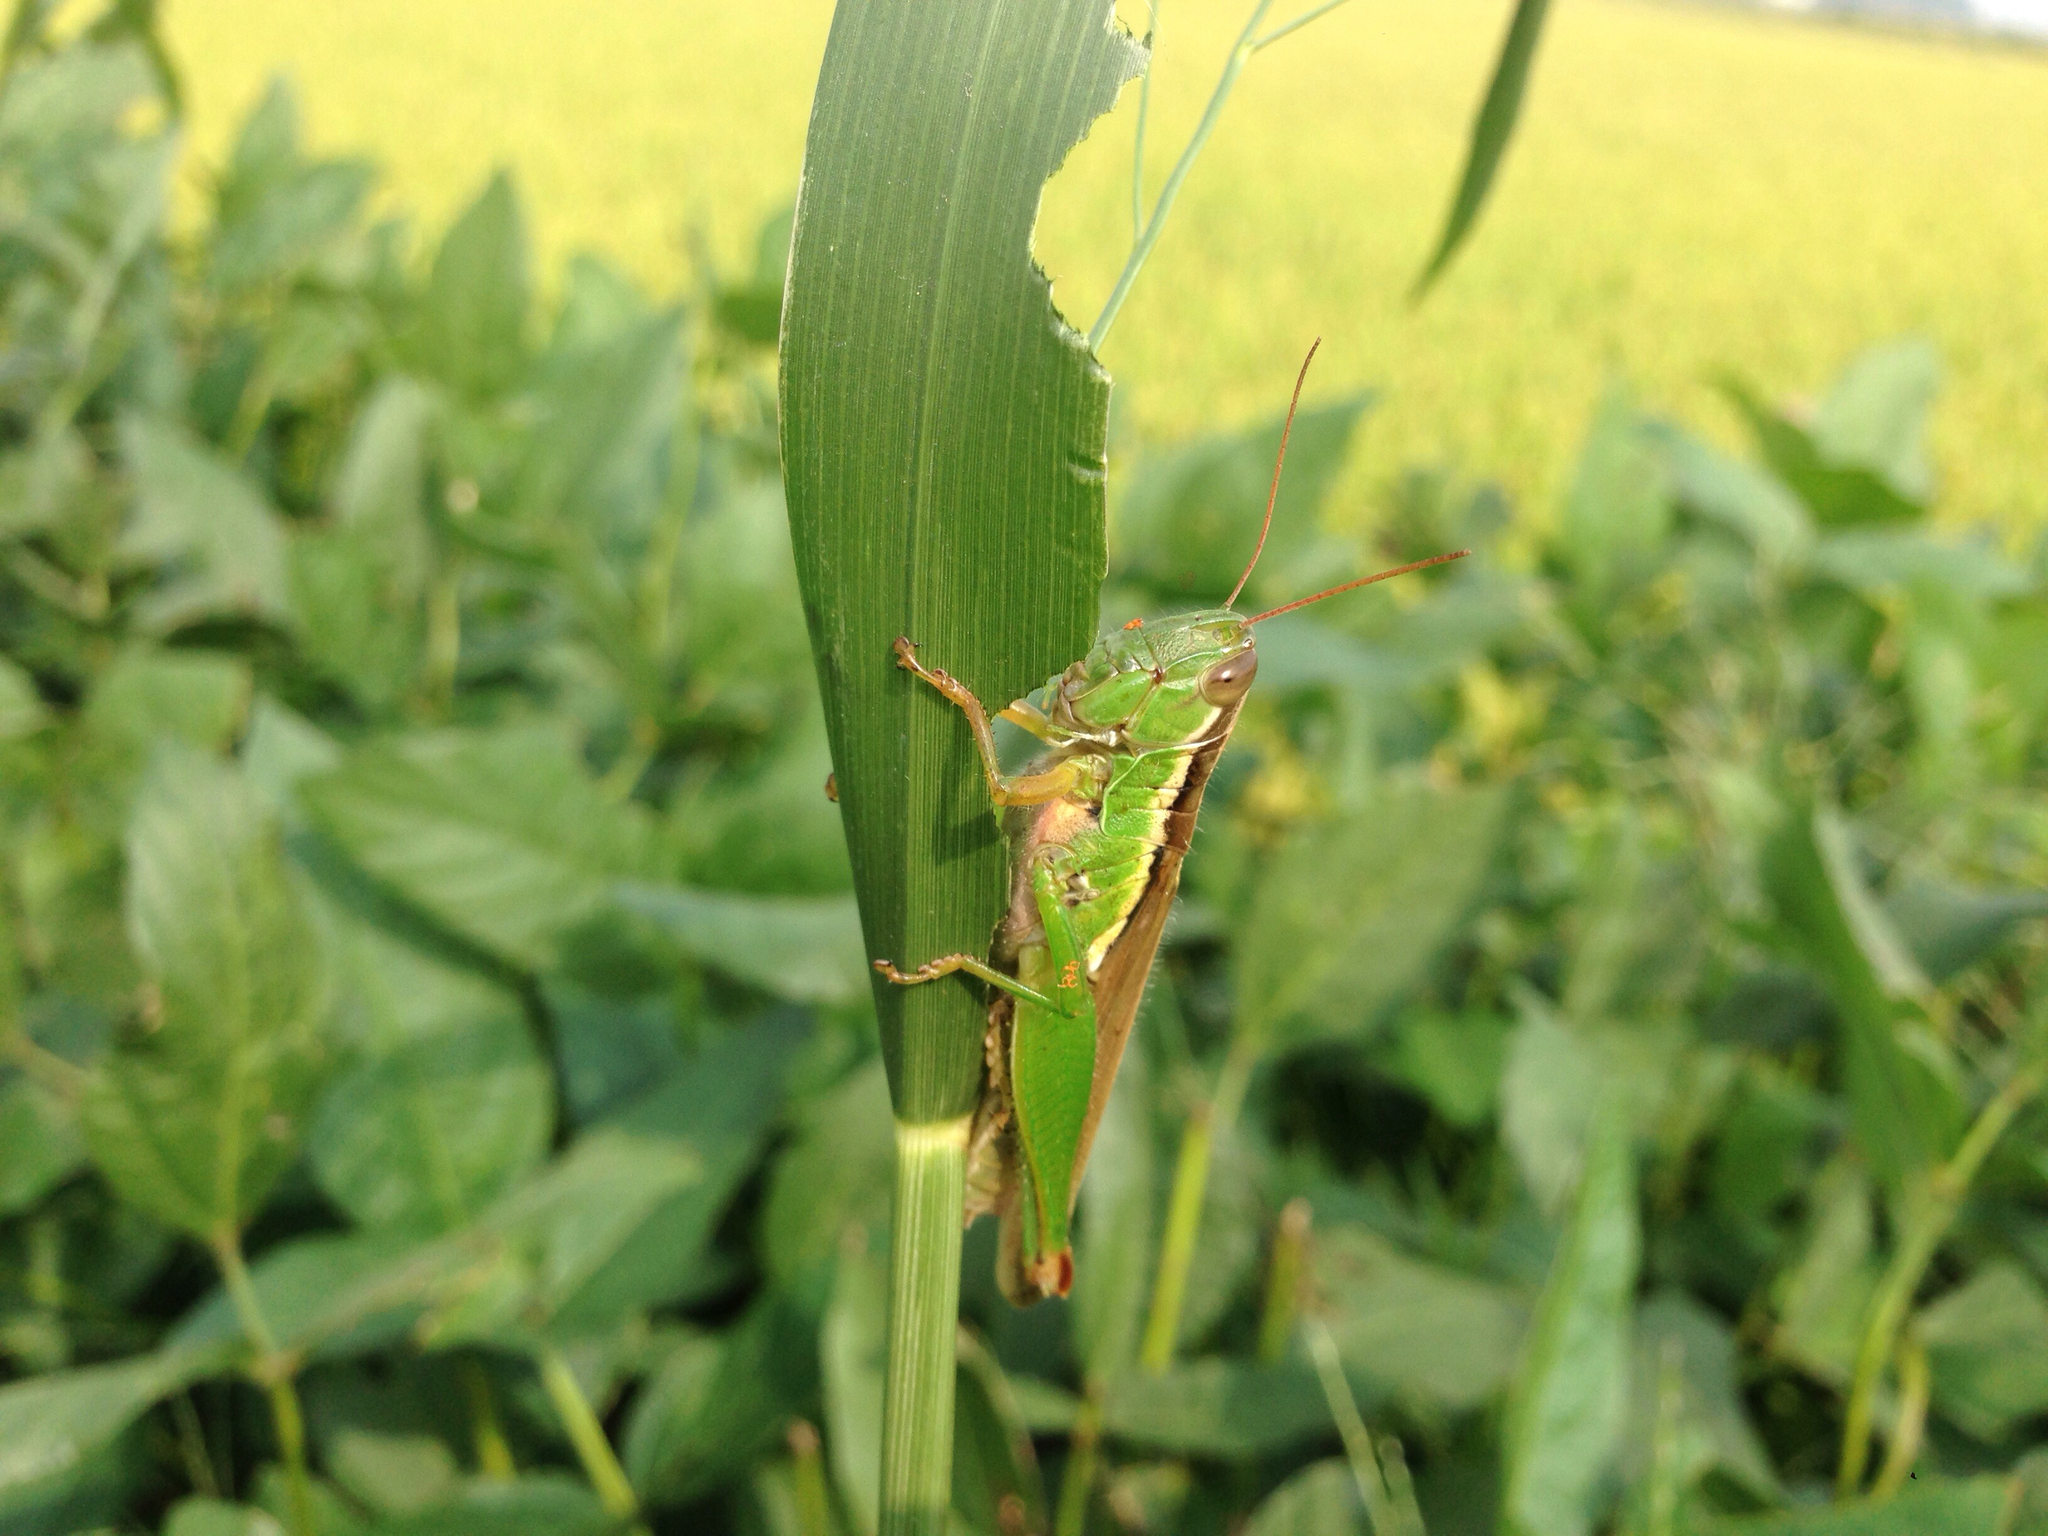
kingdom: Animalia
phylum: Arthropoda
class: Insecta
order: Orthoptera
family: Acrididae
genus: Oxya
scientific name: Oxya chinensis
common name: Small rice grasshopper
